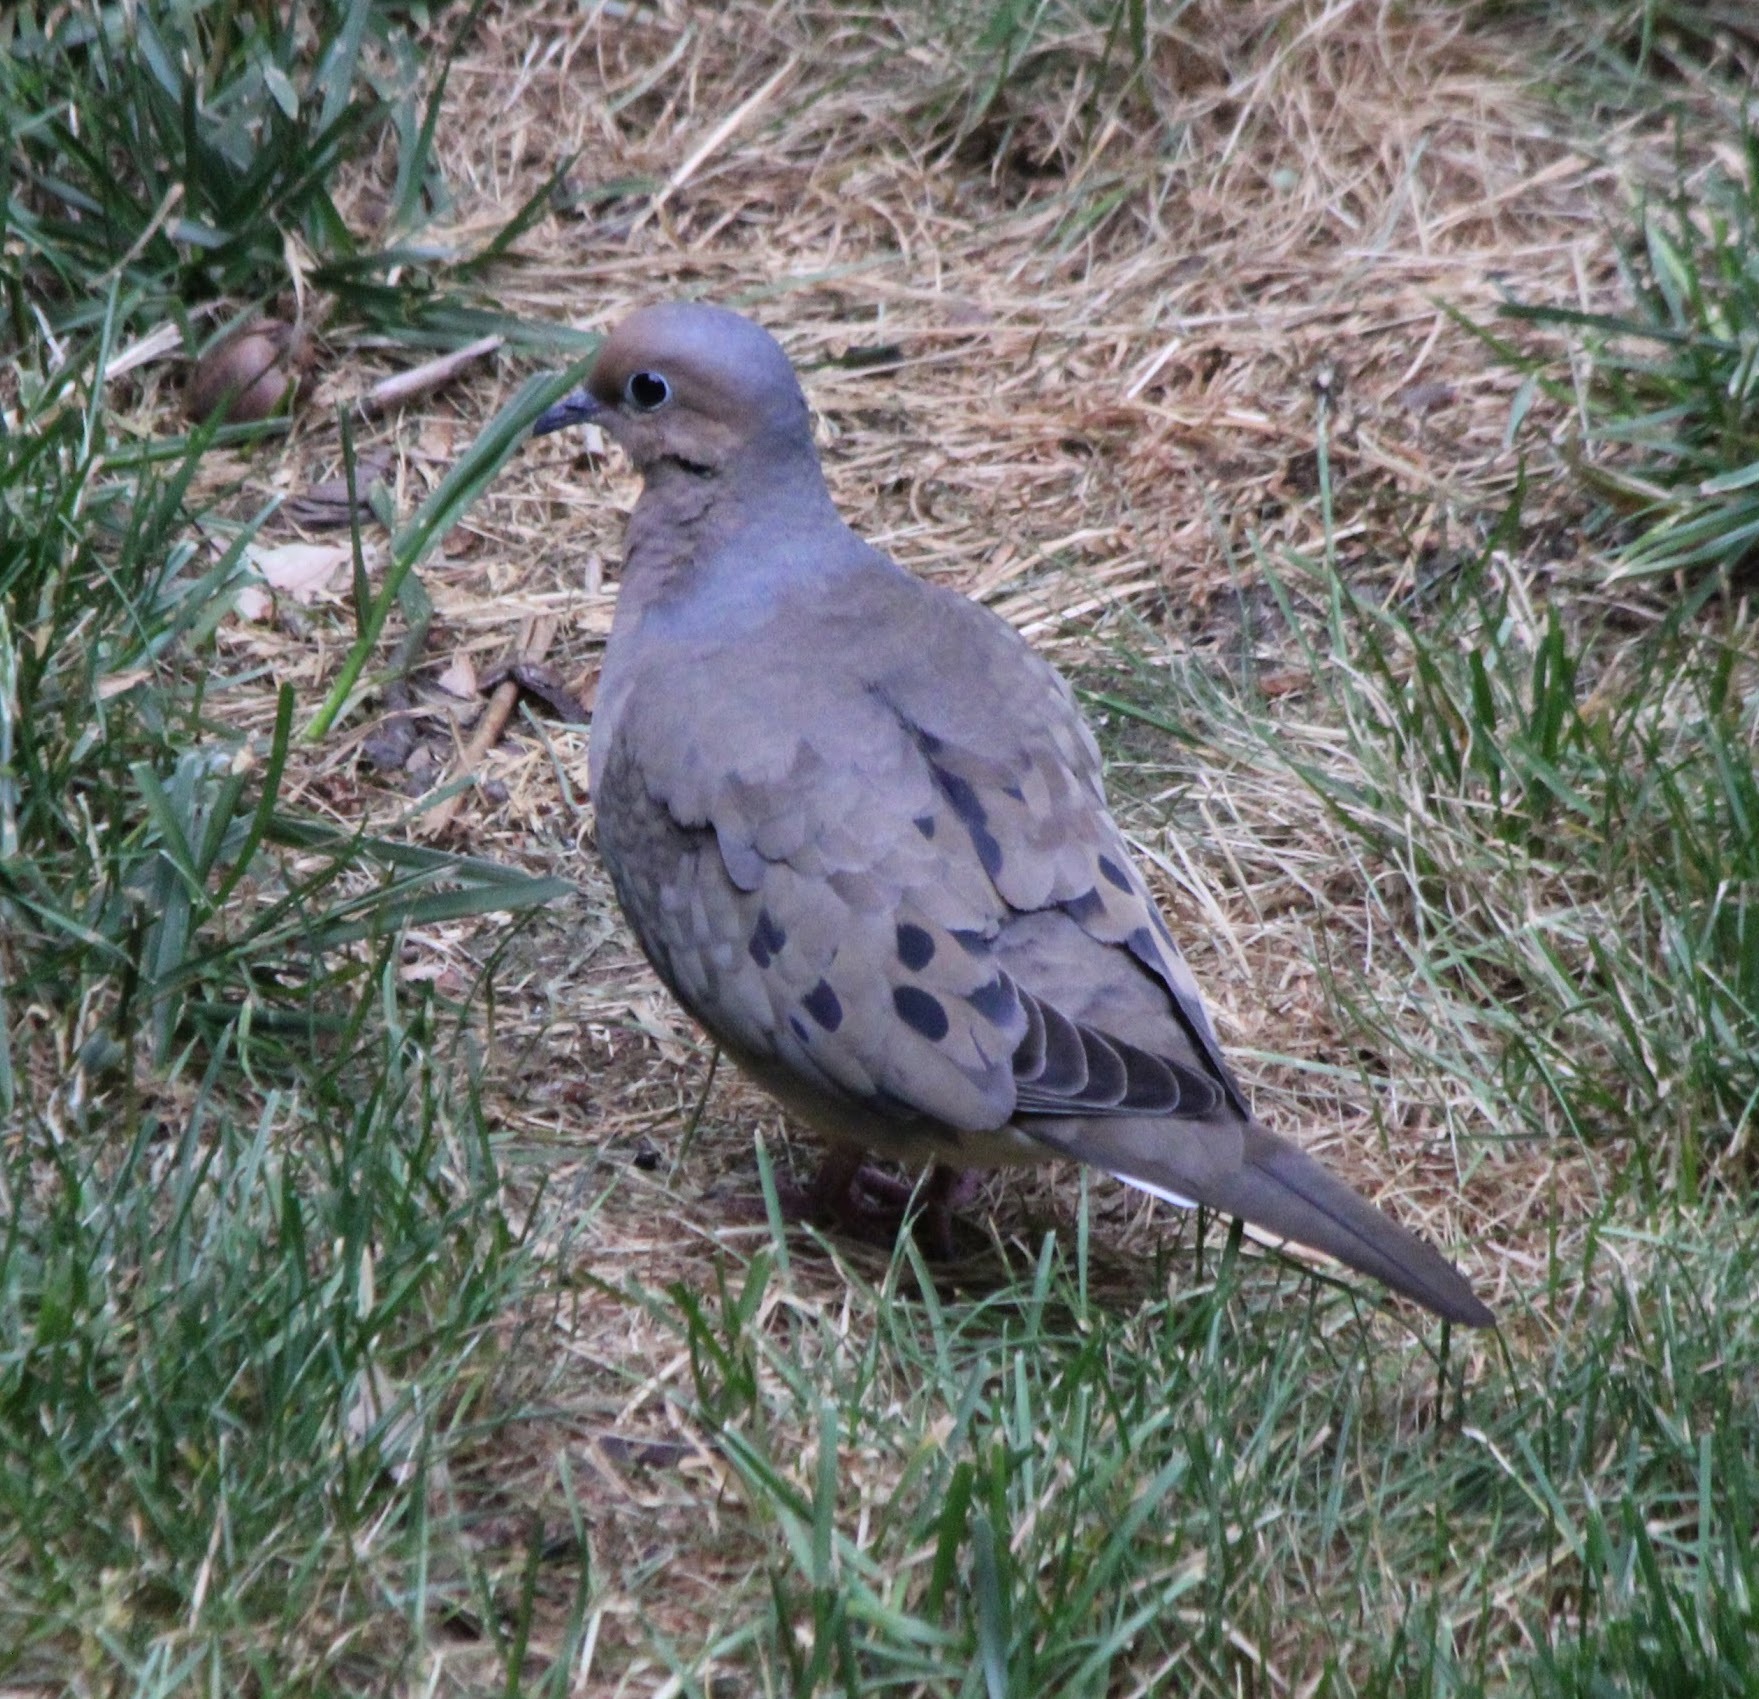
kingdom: Animalia
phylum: Chordata
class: Aves
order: Columbiformes
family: Columbidae
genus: Zenaida
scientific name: Zenaida macroura
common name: Mourning dove
